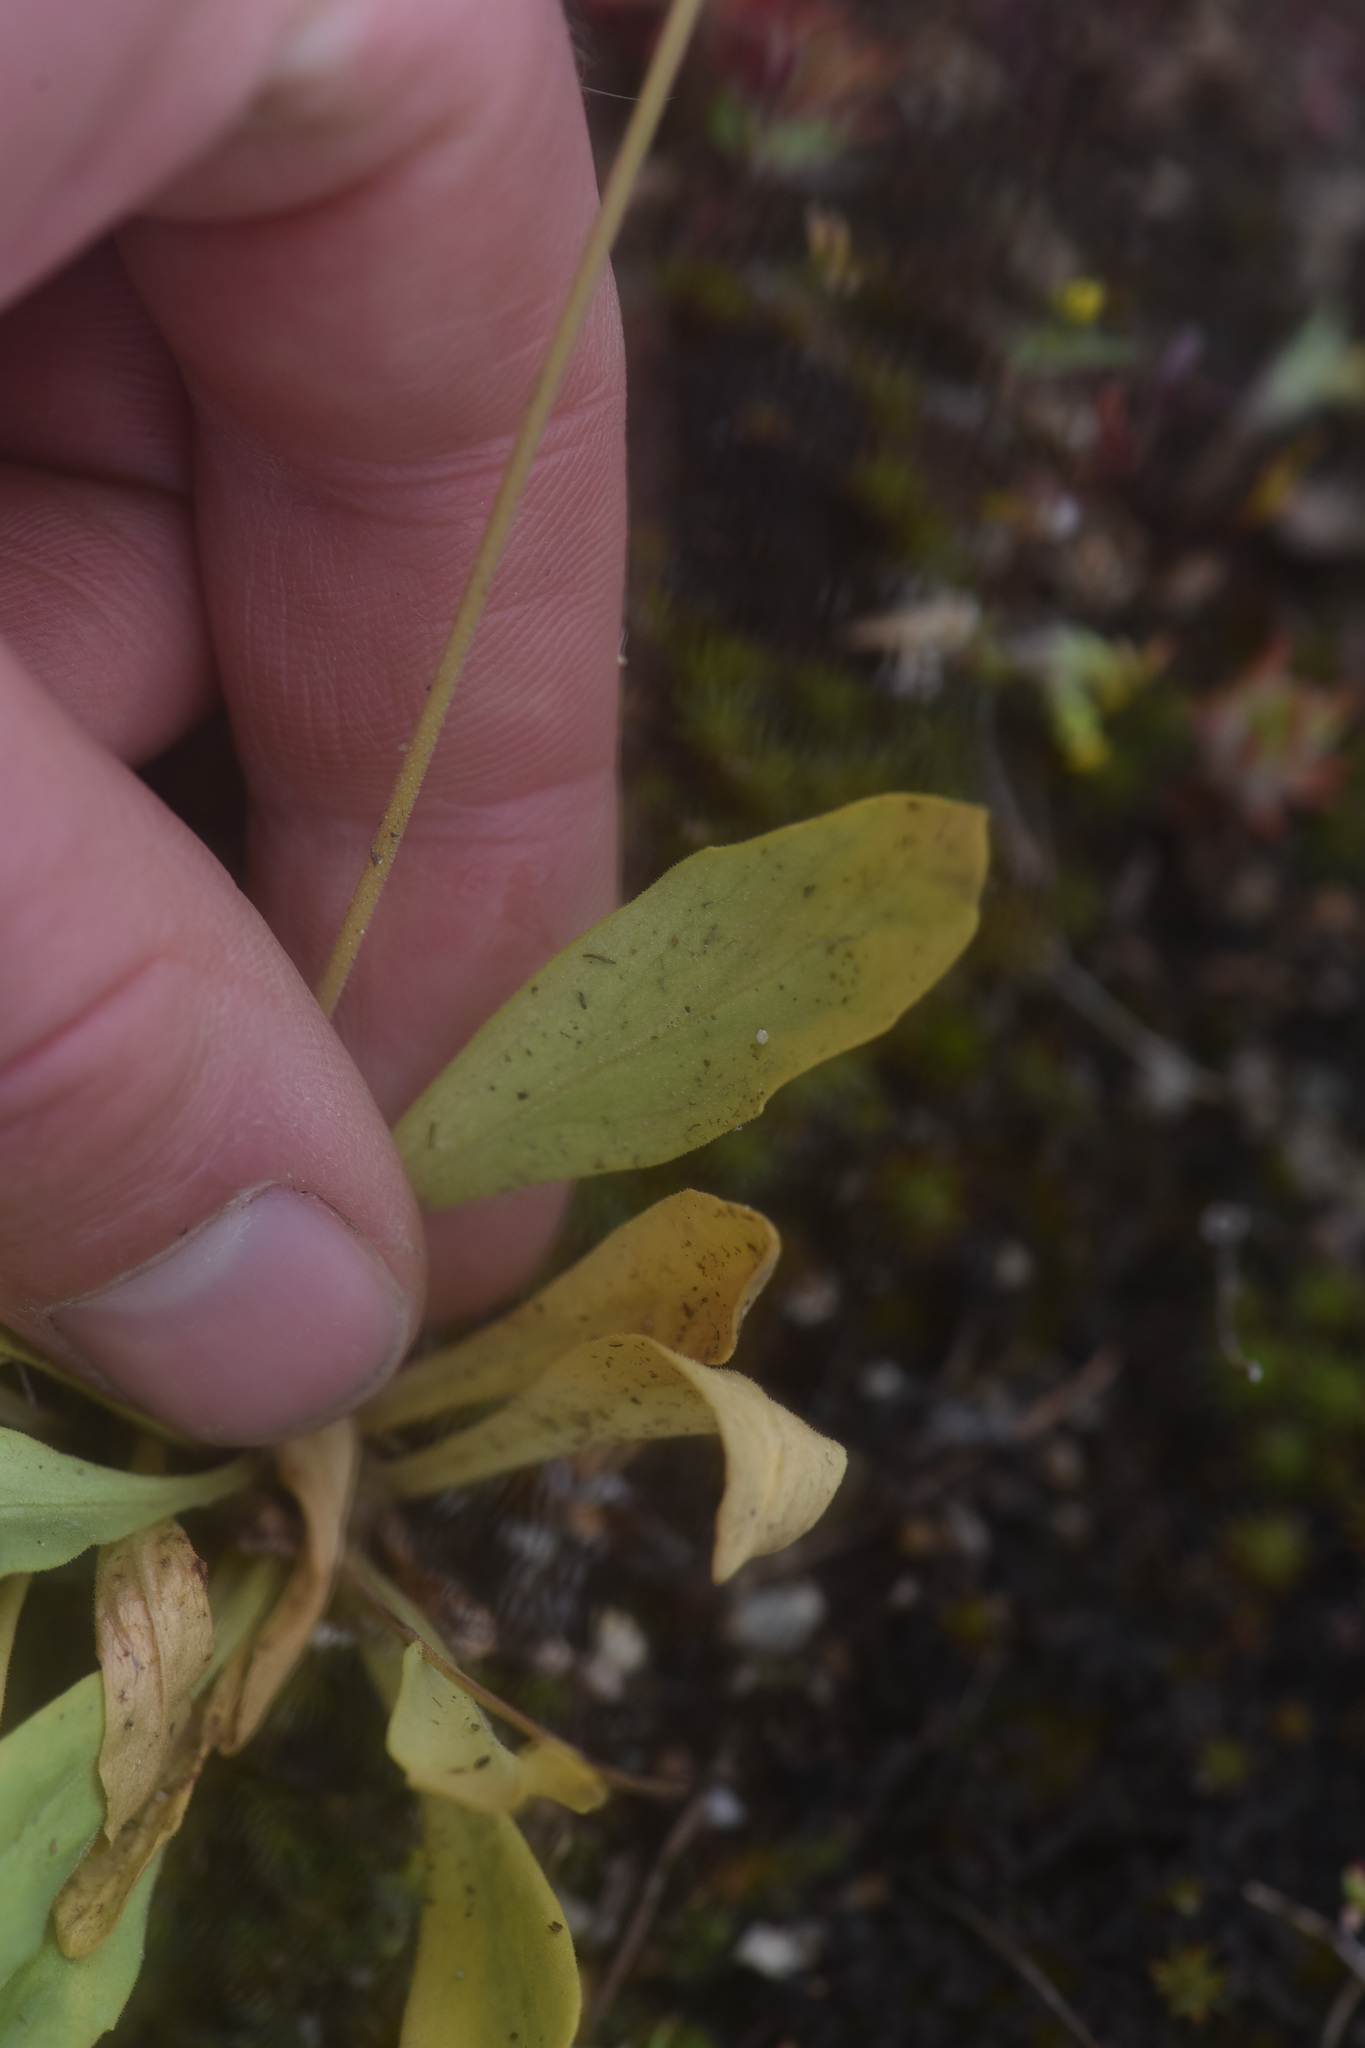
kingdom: Plantae
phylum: Tracheophyta
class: Magnoliopsida
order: Ericales
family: Primulaceae
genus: Dodecatheon
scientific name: Dodecatheon pulchellum
